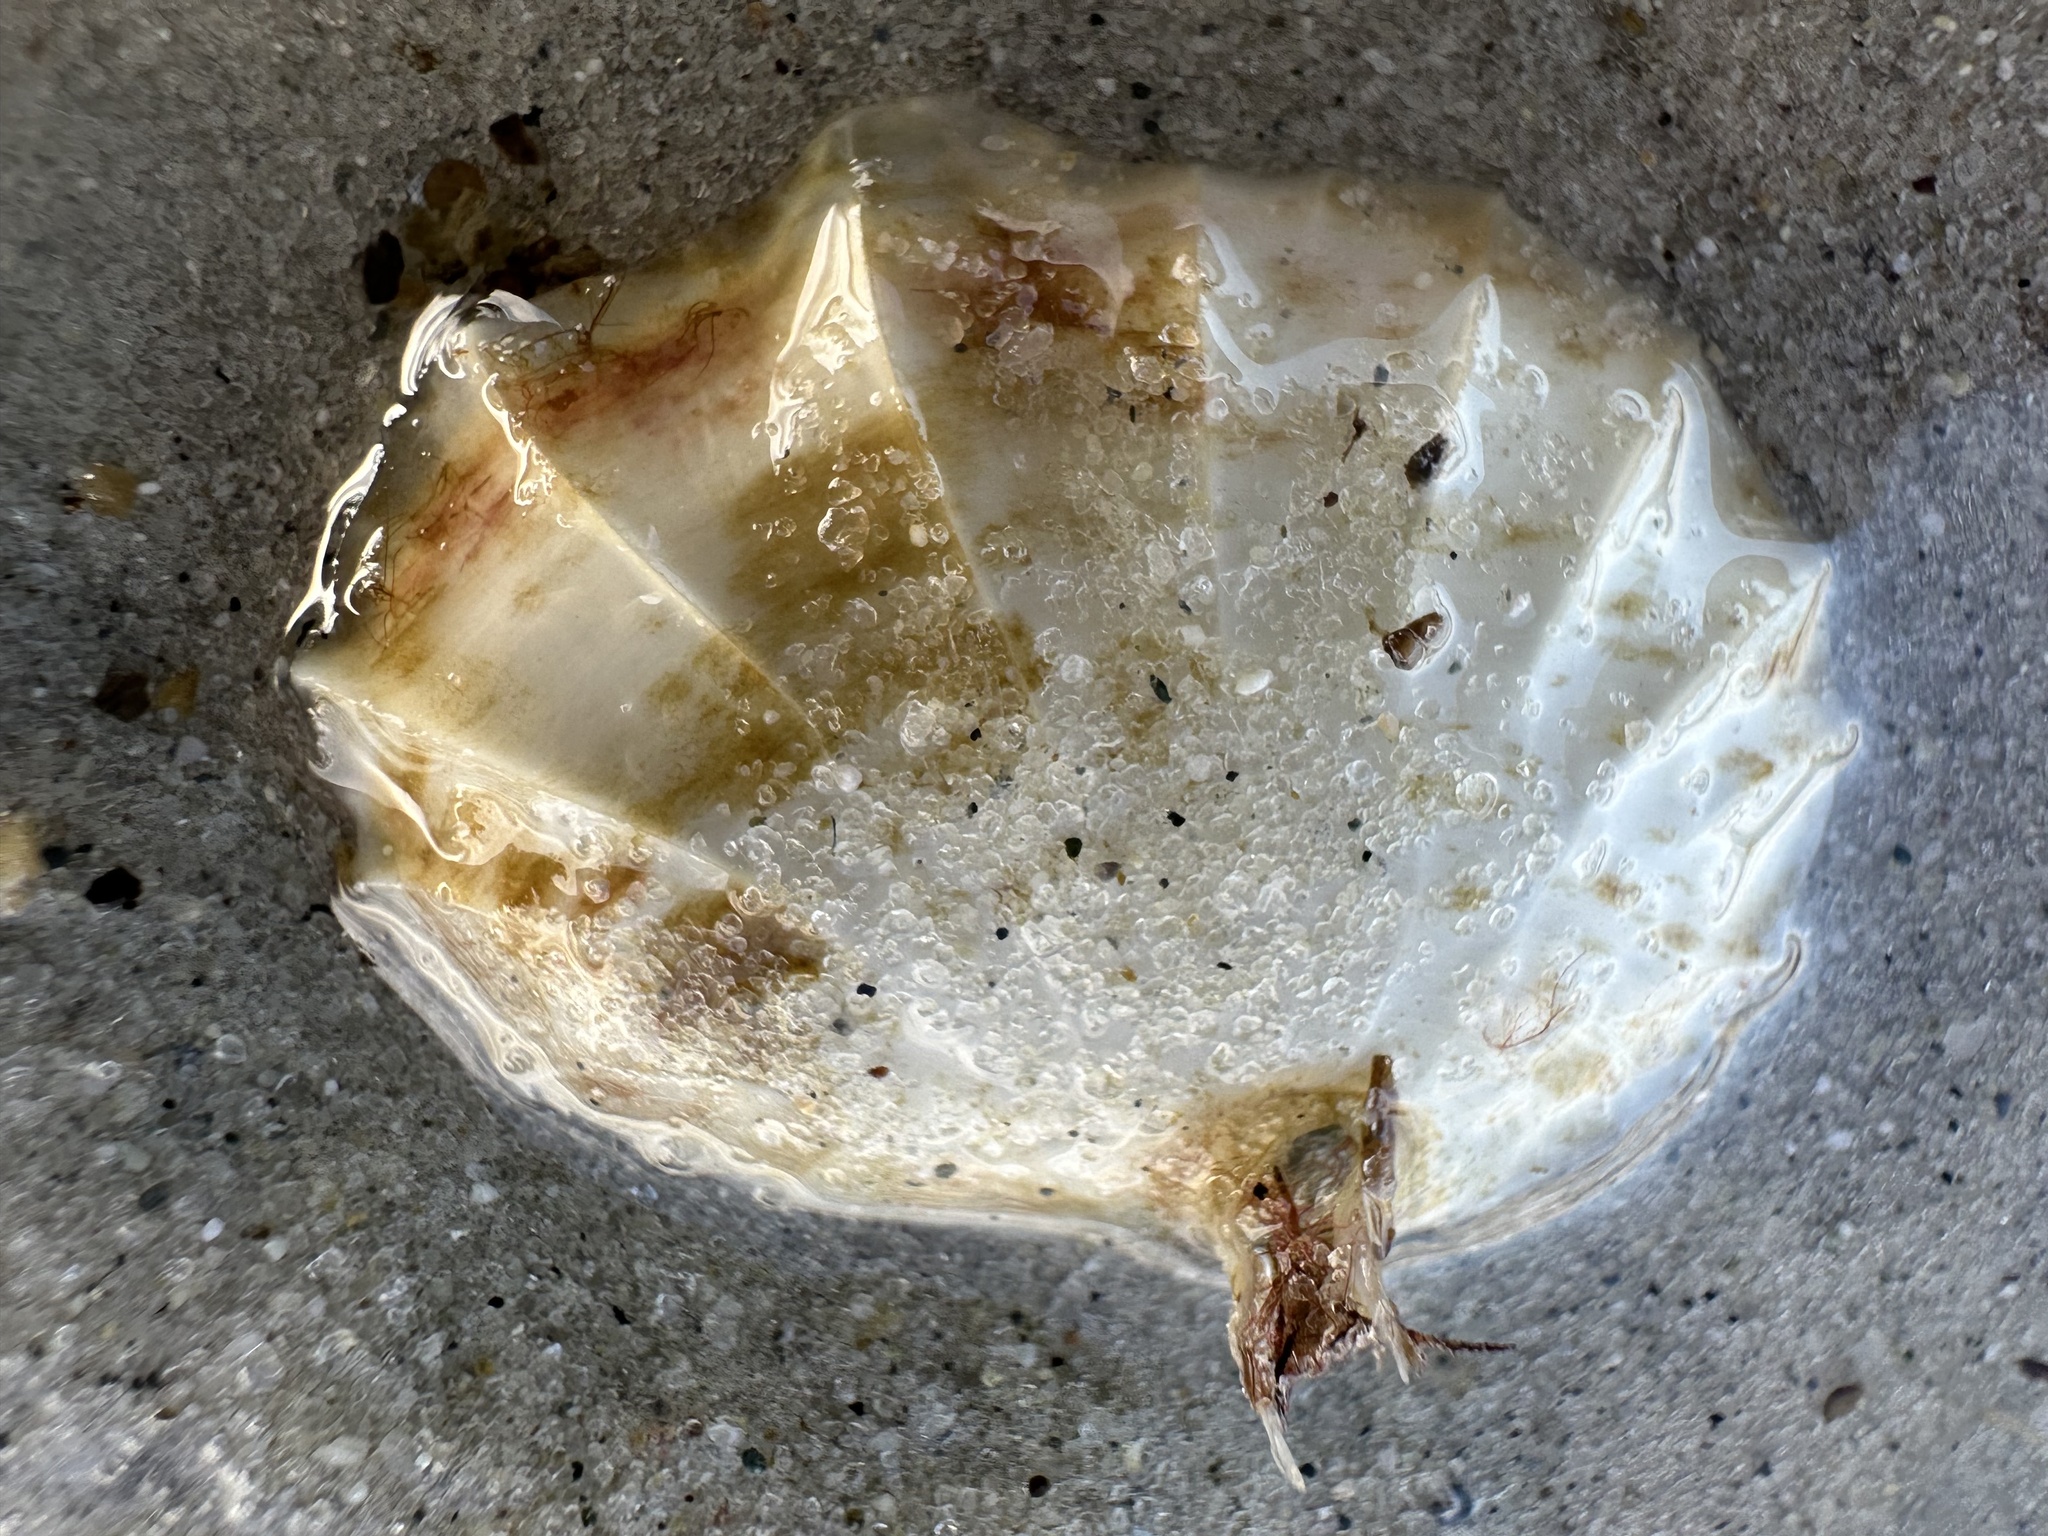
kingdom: Animalia
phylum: Mollusca
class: Gastropoda
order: Neogastropoda
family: Busyconidae
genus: Busycotypus
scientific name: Busycotypus canaliculatus
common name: Channeled whelk
